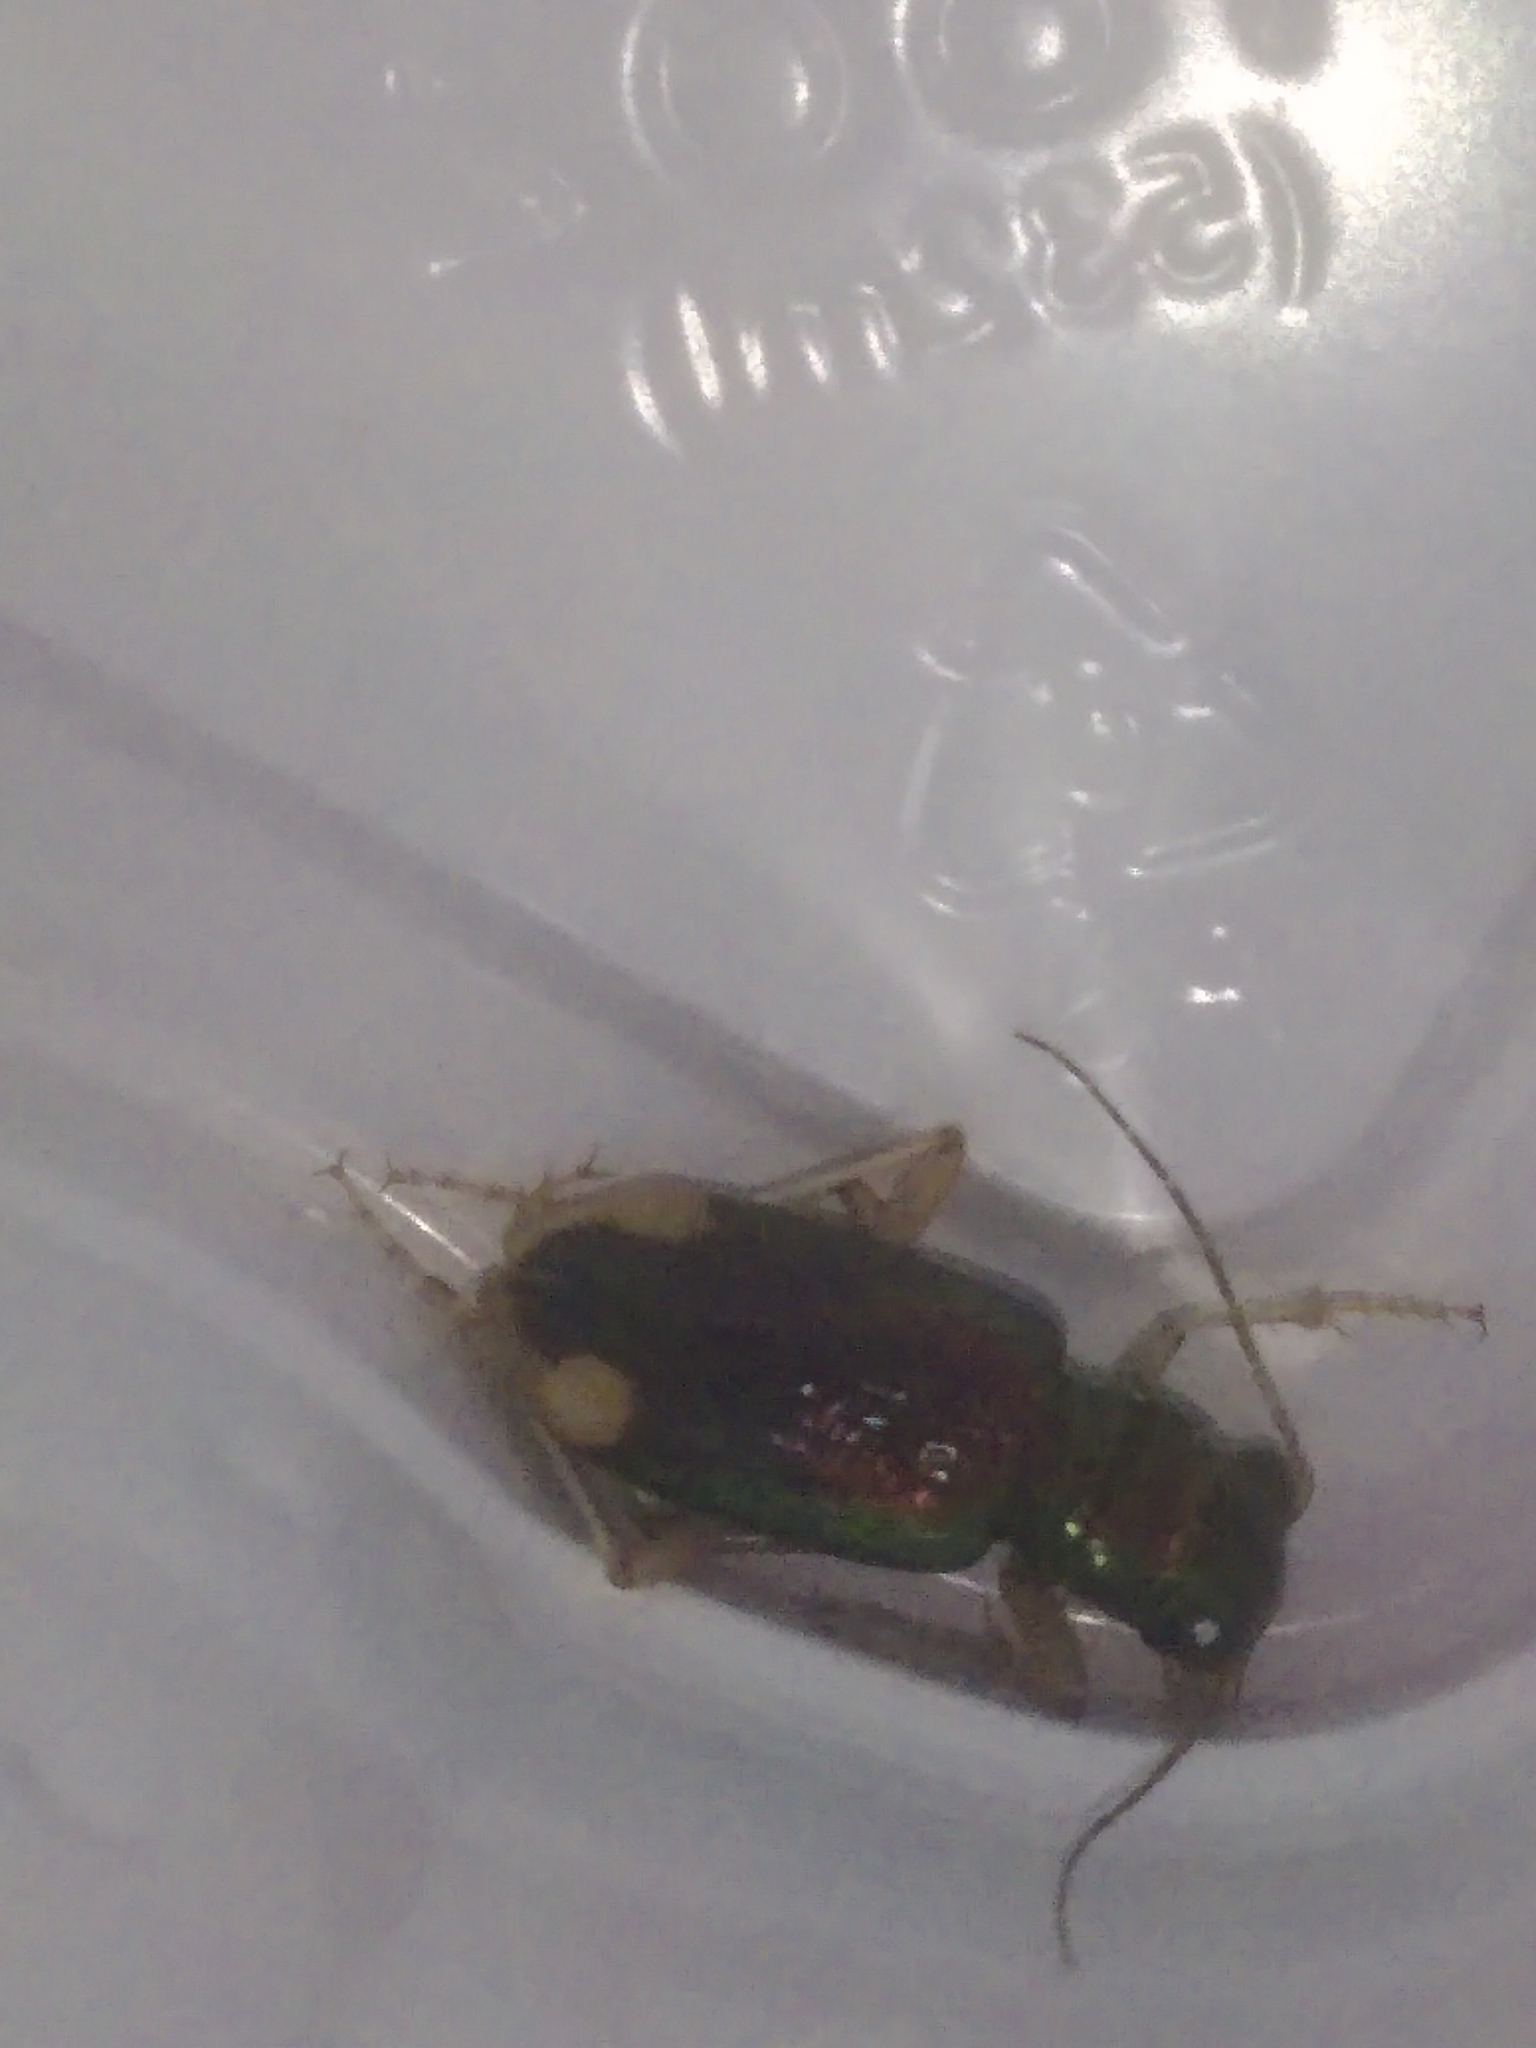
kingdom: Animalia
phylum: Arthropoda
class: Insecta
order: Coleoptera
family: Carabidae
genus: Tetracha
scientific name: Tetracha carolina
